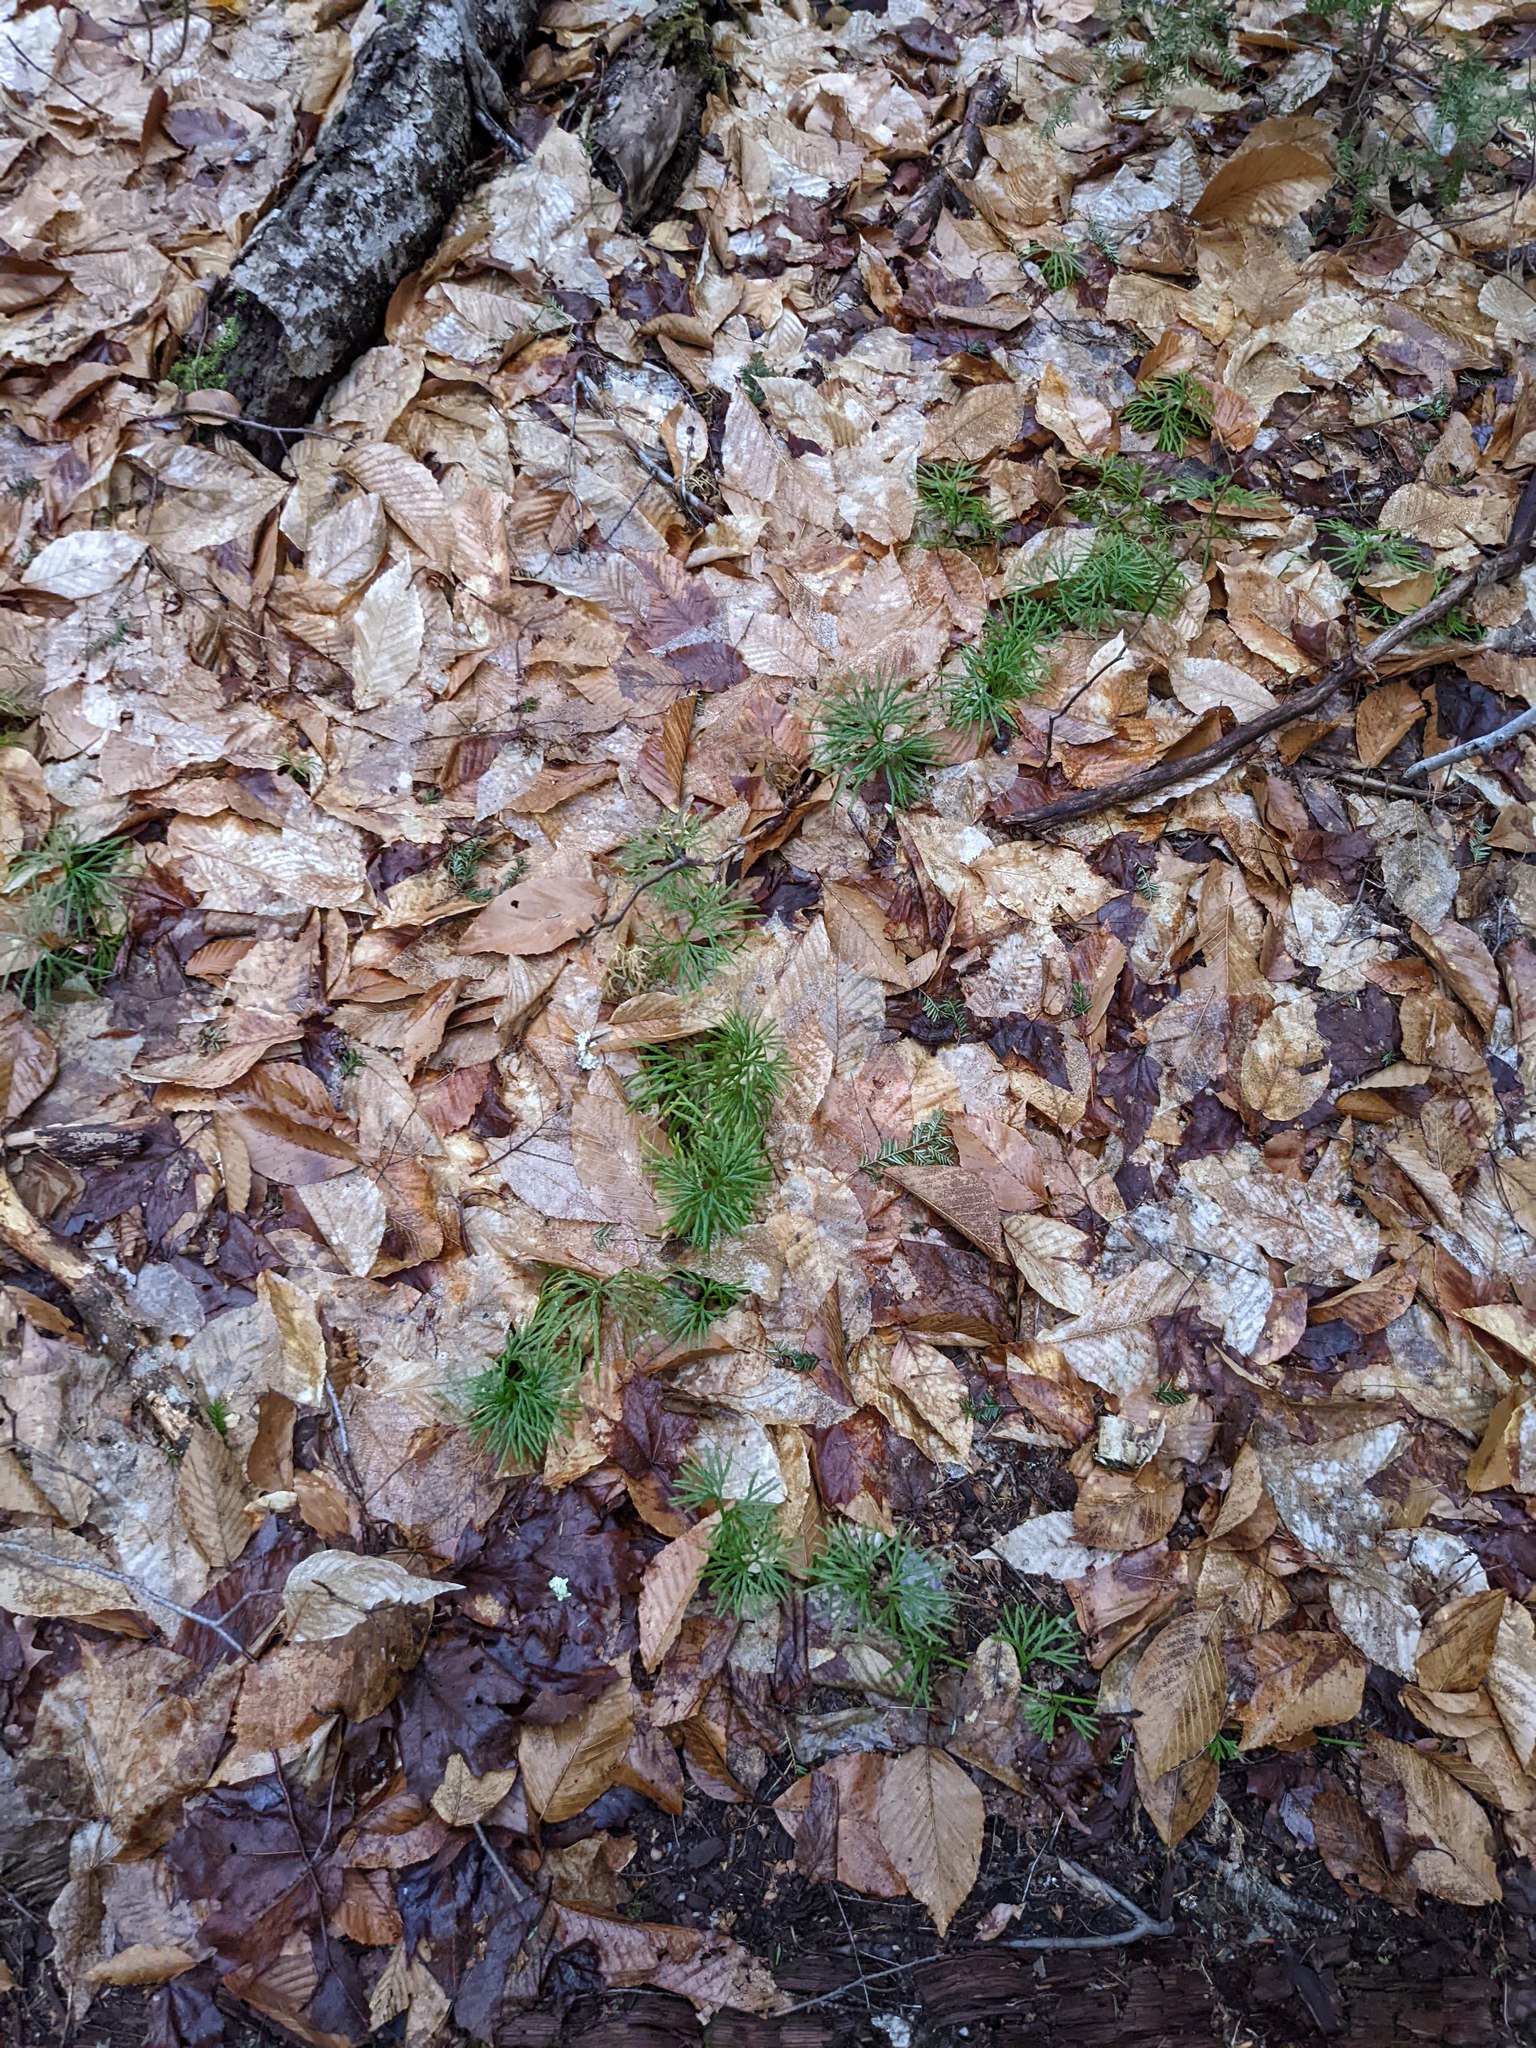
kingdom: Plantae
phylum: Tracheophyta
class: Lycopodiopsida
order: Lycopodiales
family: Lycopodiaceae
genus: Diphasiastrum
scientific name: Diphasiastrum digitatum
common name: Southern running-pine
